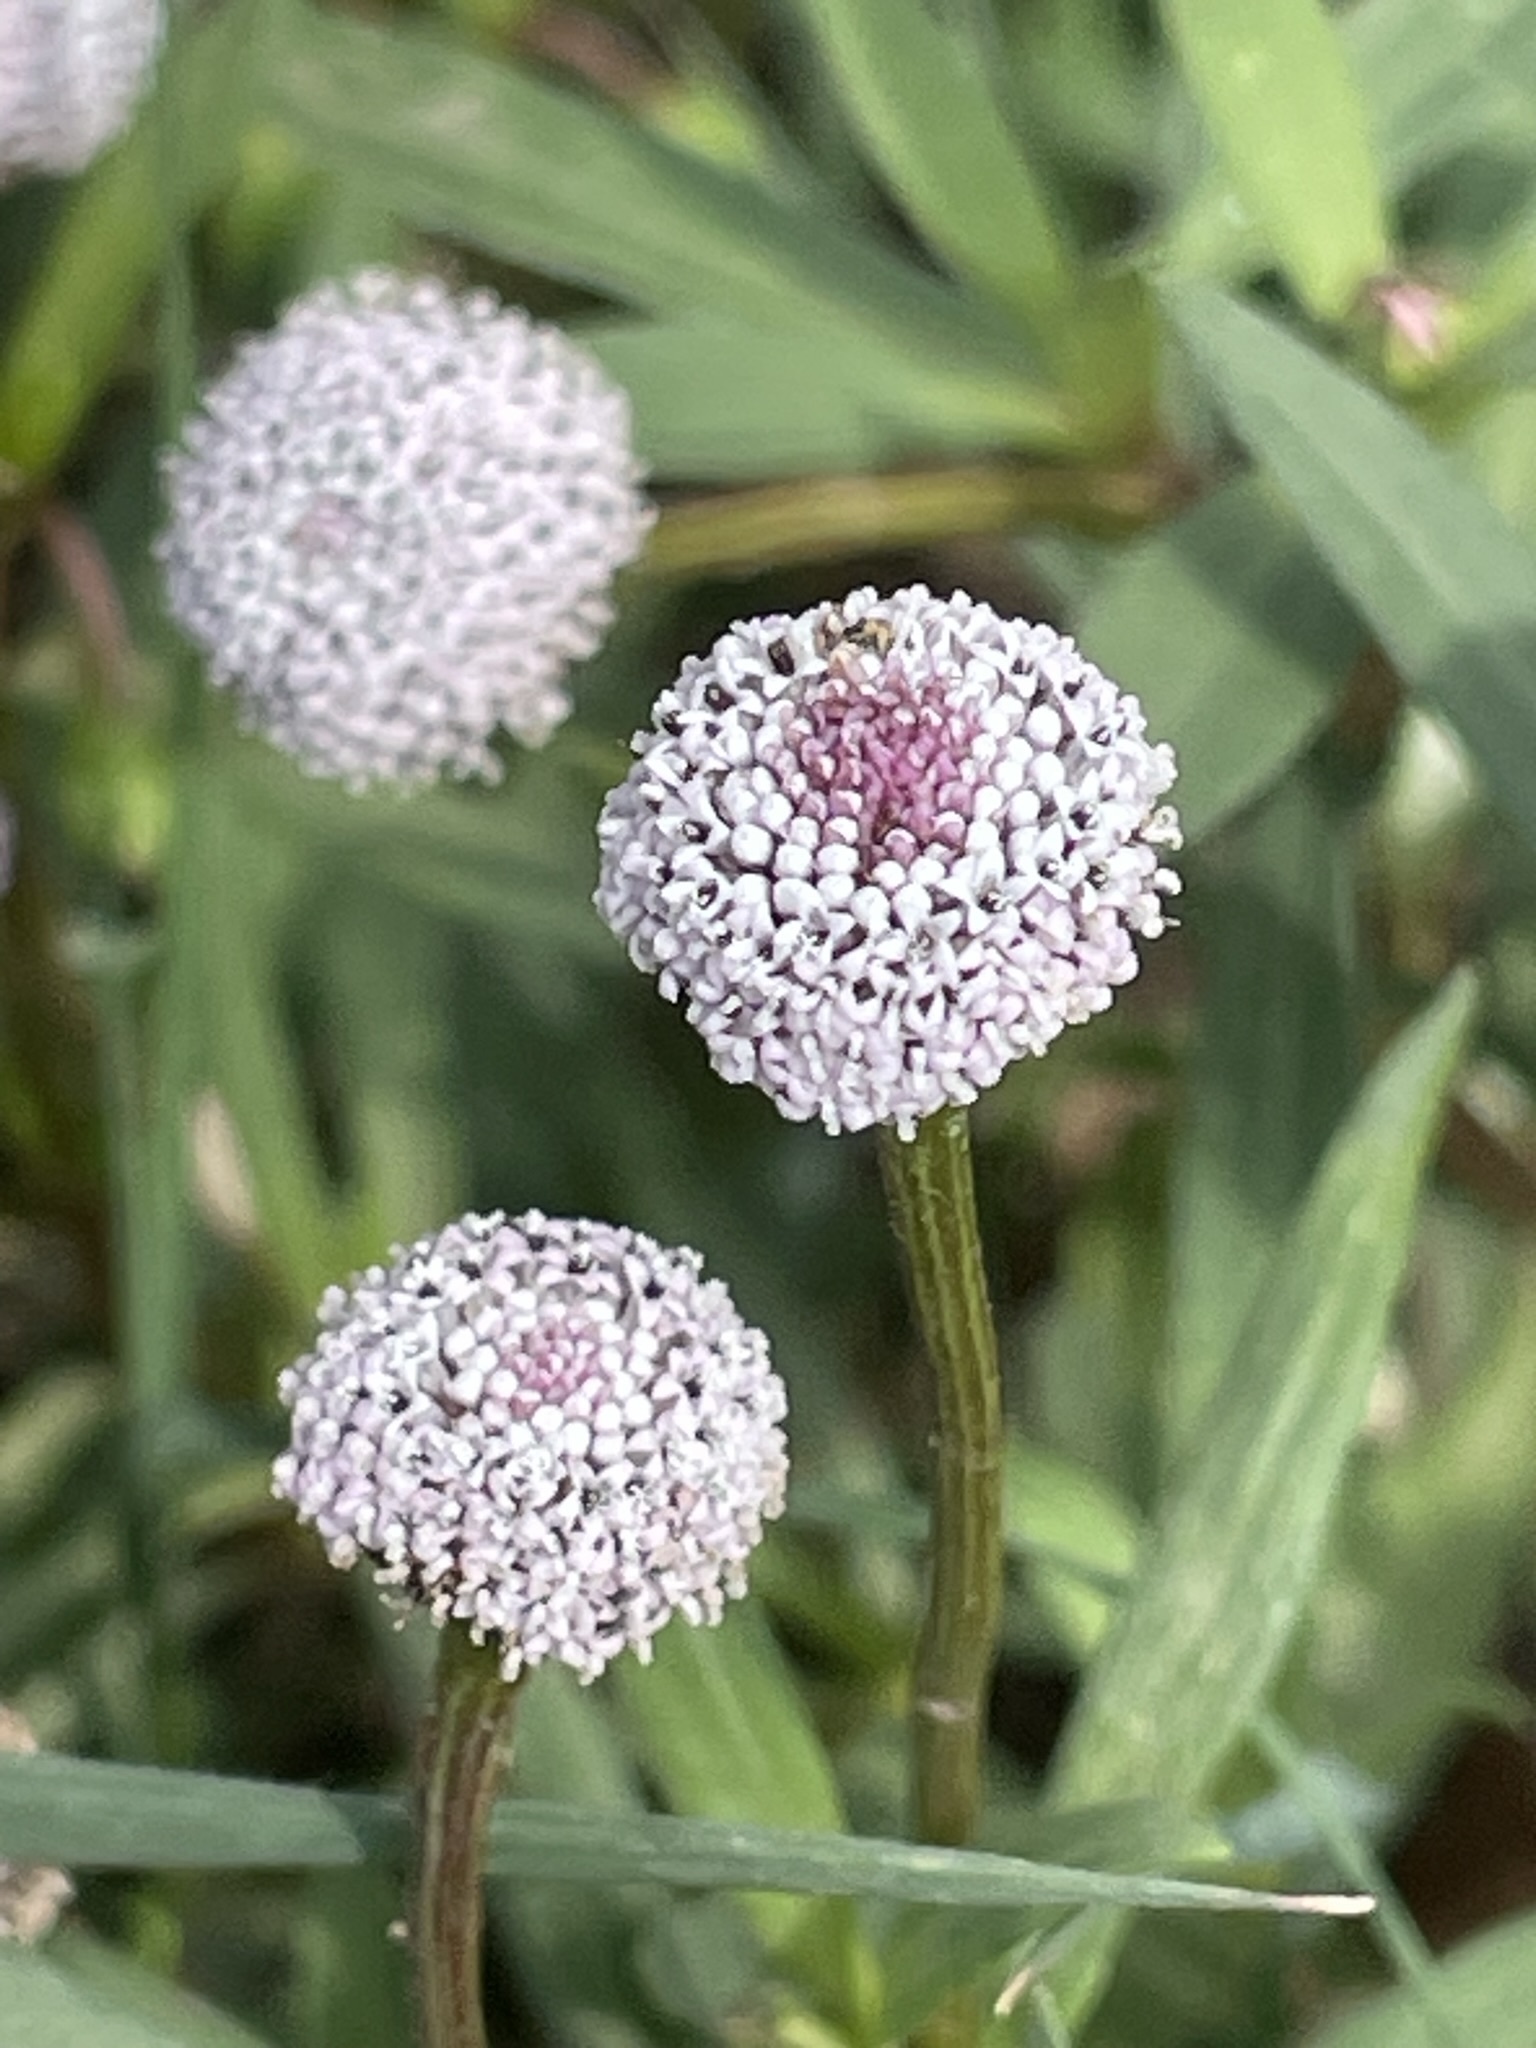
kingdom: Plantae
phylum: Tracheophyta
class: Magnoliopsida
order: Asterales
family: Asteraceae
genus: Spilanthes
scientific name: Spilanthes leiocarpa
